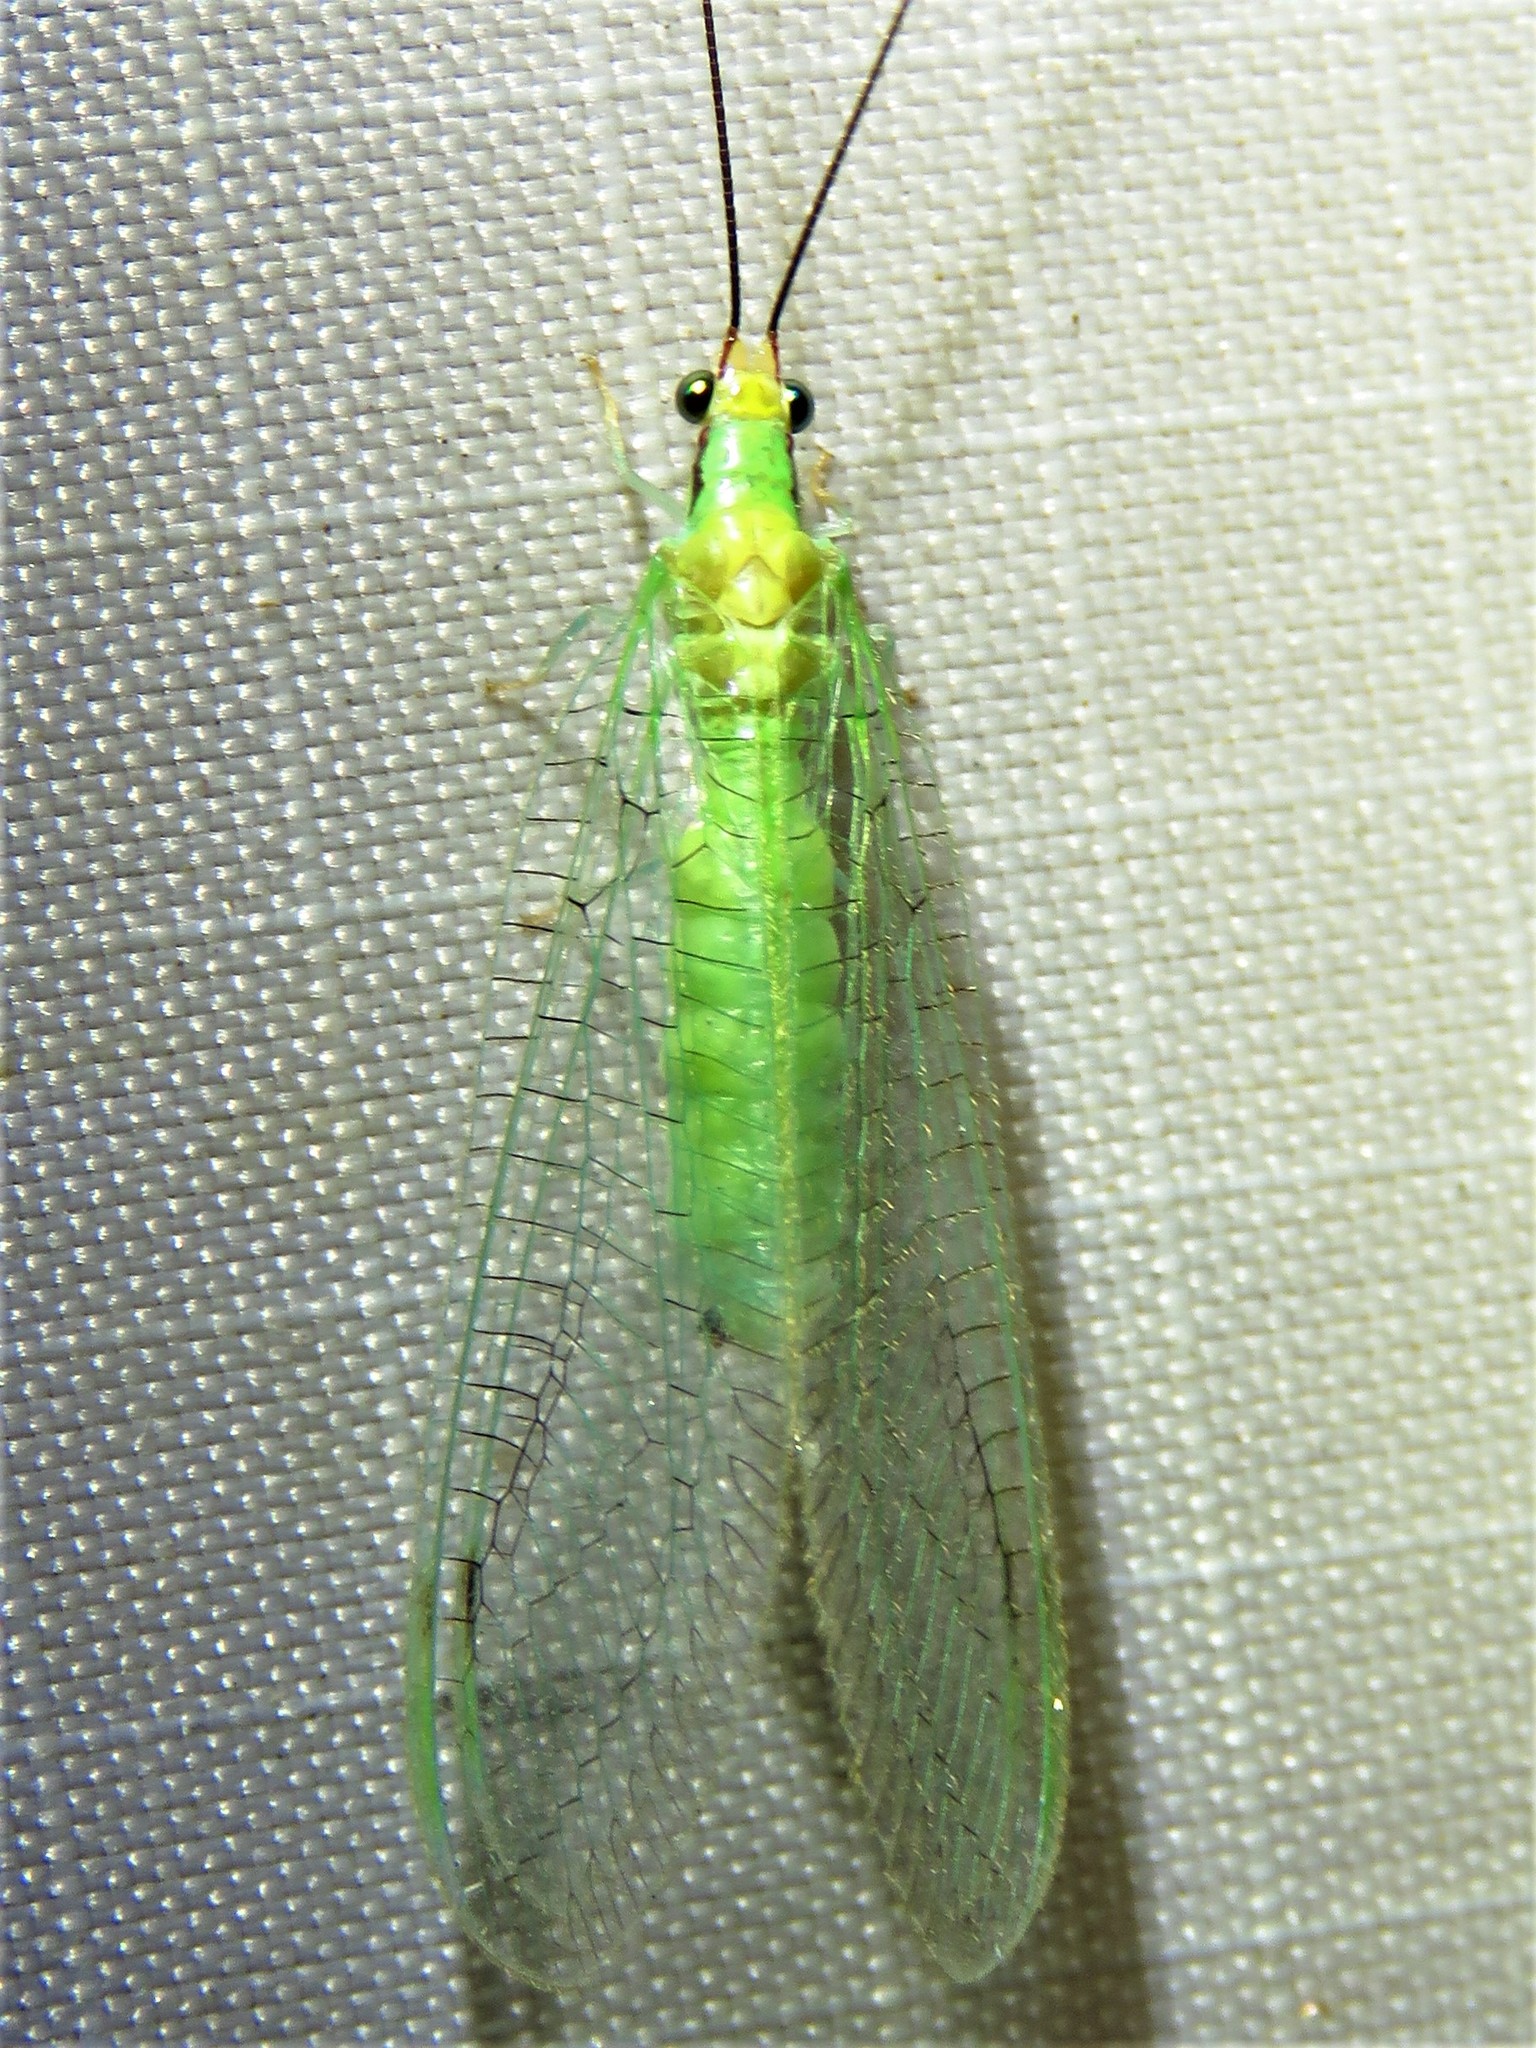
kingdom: Animalia
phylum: Arthropoda
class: Insecta
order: Neuroptera
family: Chrysopidae
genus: Leucochrysa
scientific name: Leucochrysa pavida
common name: Lichen-carrying green lacewing
